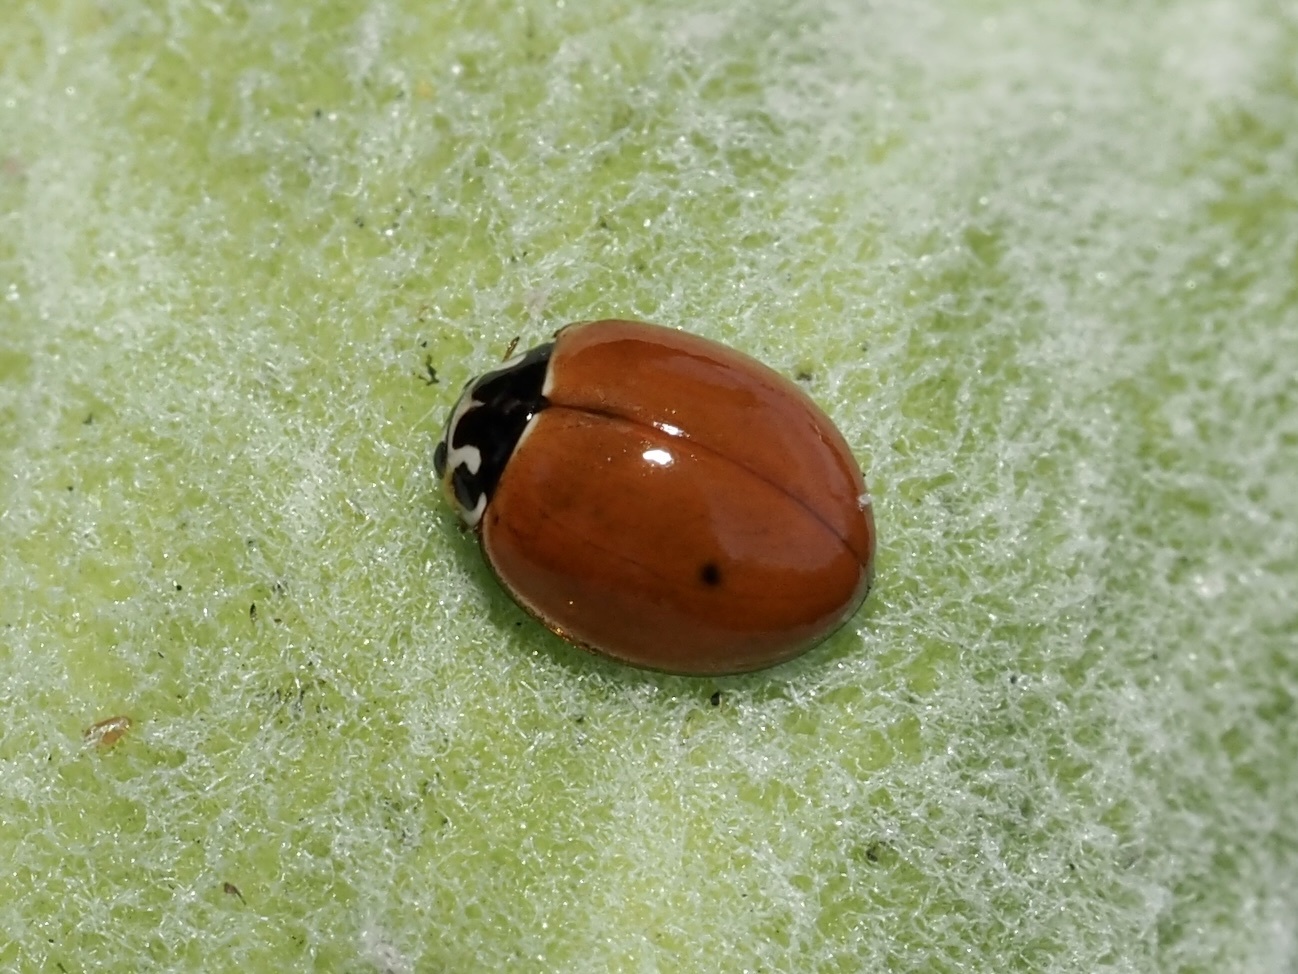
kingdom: Animalia
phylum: Arthropoda
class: Insecta
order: Coleoptera
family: Coccinellidae
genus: Cycloneda
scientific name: Cycloneda munda
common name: Polished lady beetle
